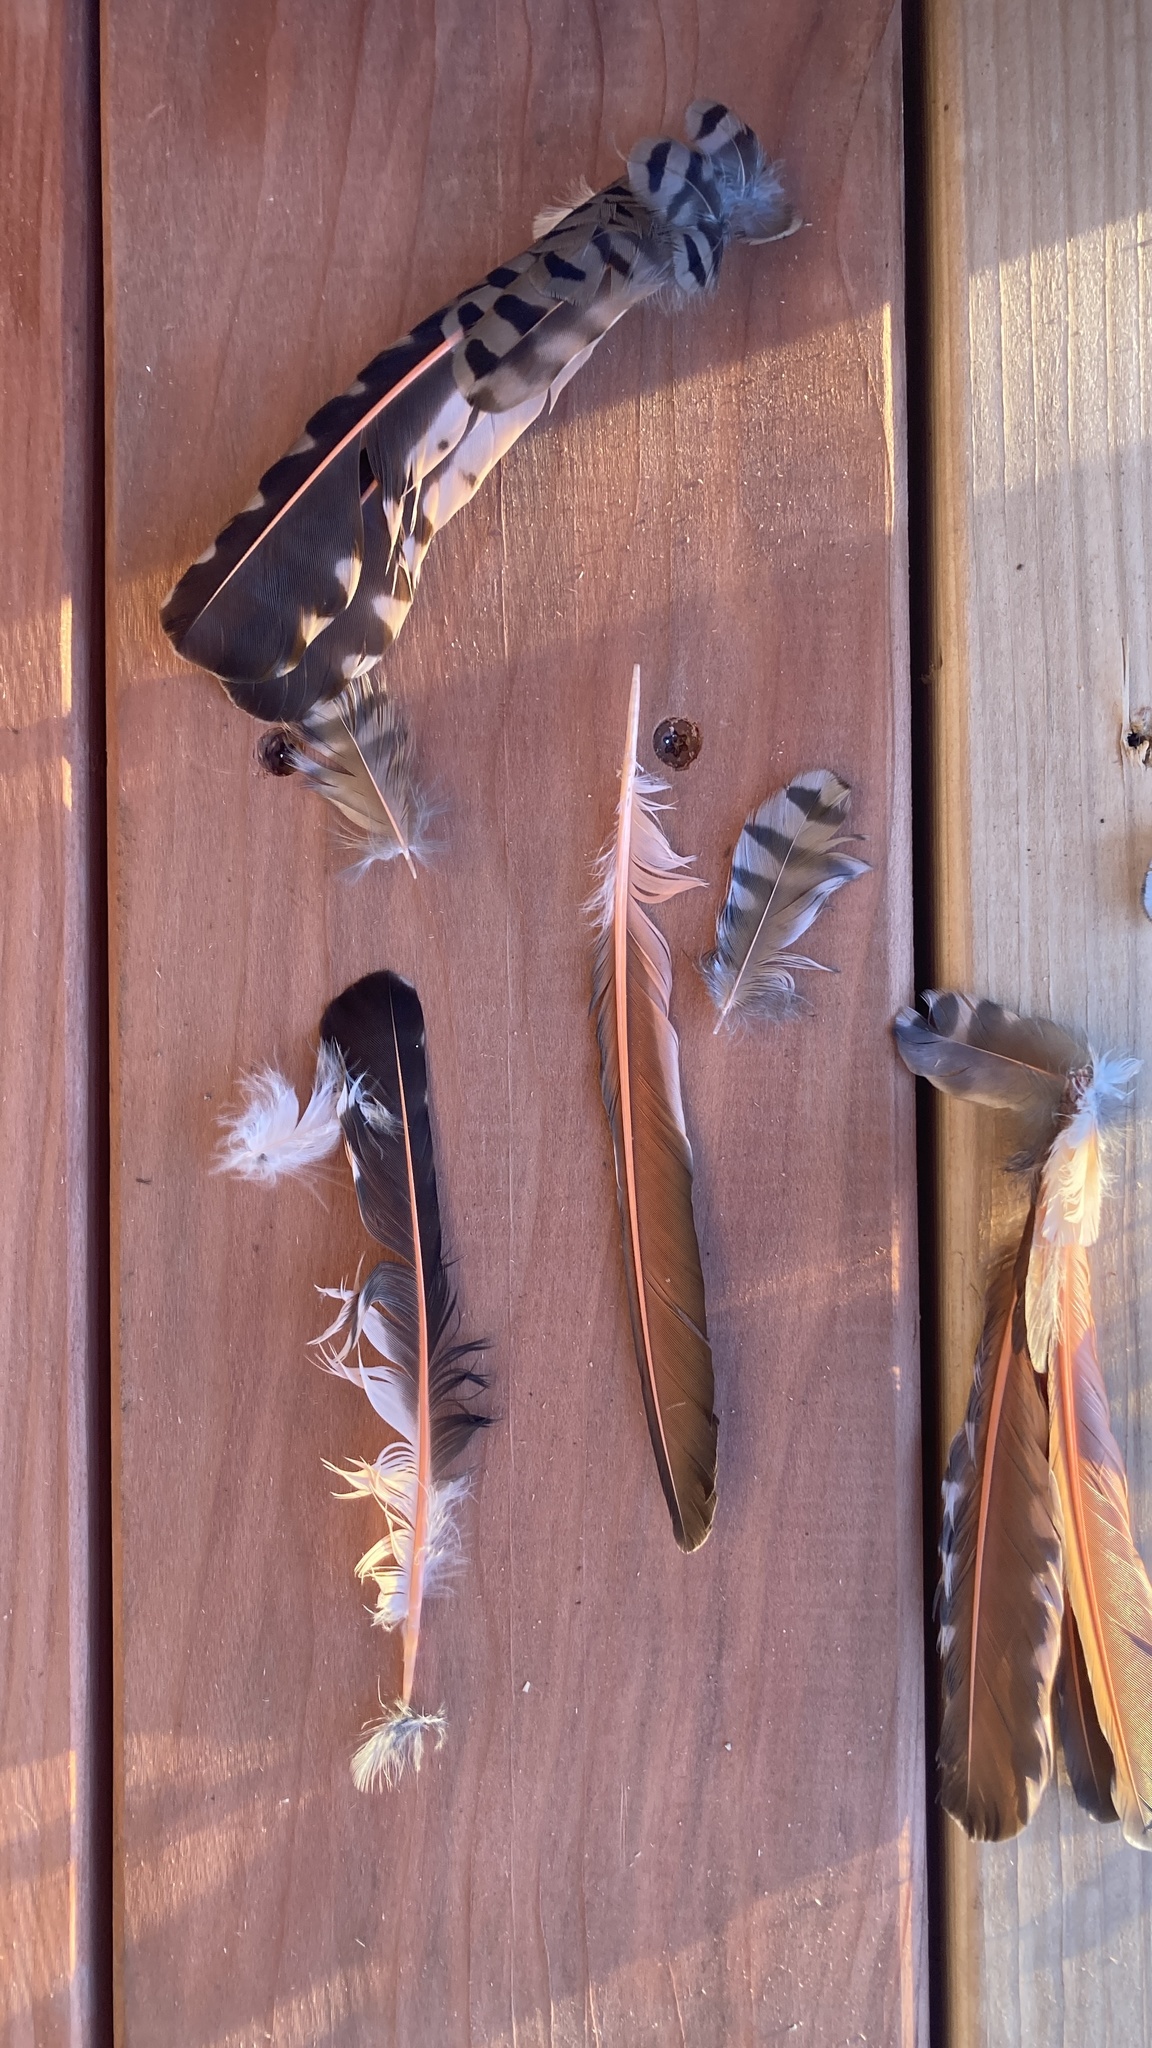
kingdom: Animalia
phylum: Chordata
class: Aves
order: Piciformes
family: Picidae
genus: Colaptes
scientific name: Colaptes auratus
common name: Northern flicker
